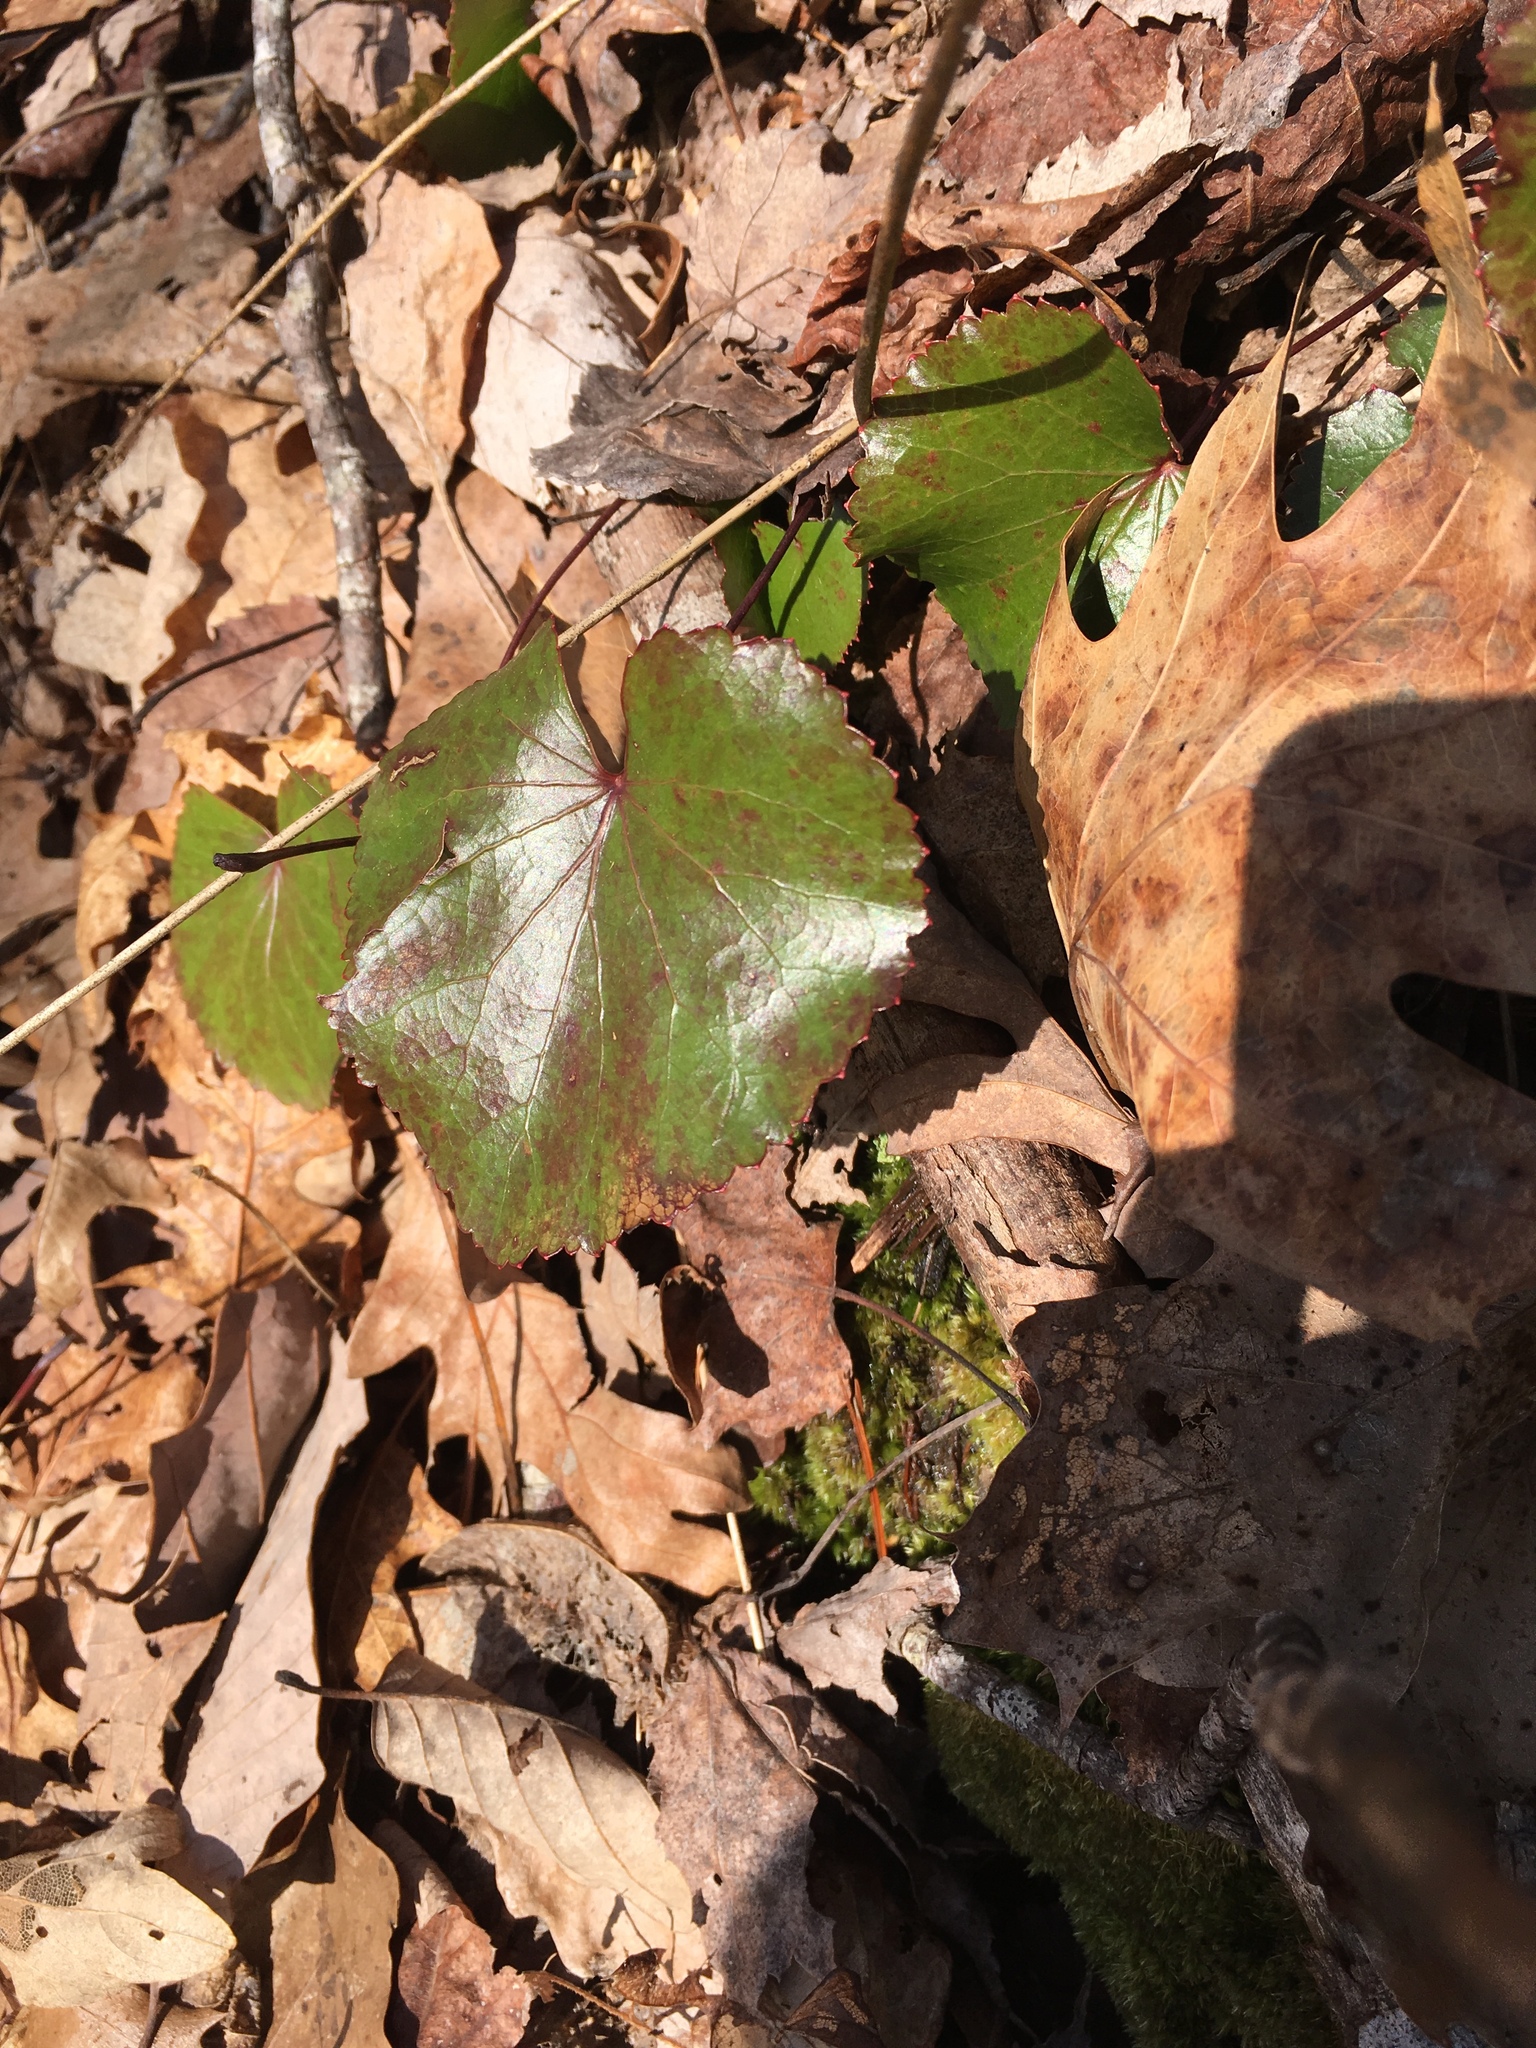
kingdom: Plantae
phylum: Tracheophyta
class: Magnoliopsida
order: Ericales
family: Diapensiaceae
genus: Galax
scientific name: Galax urceolata
